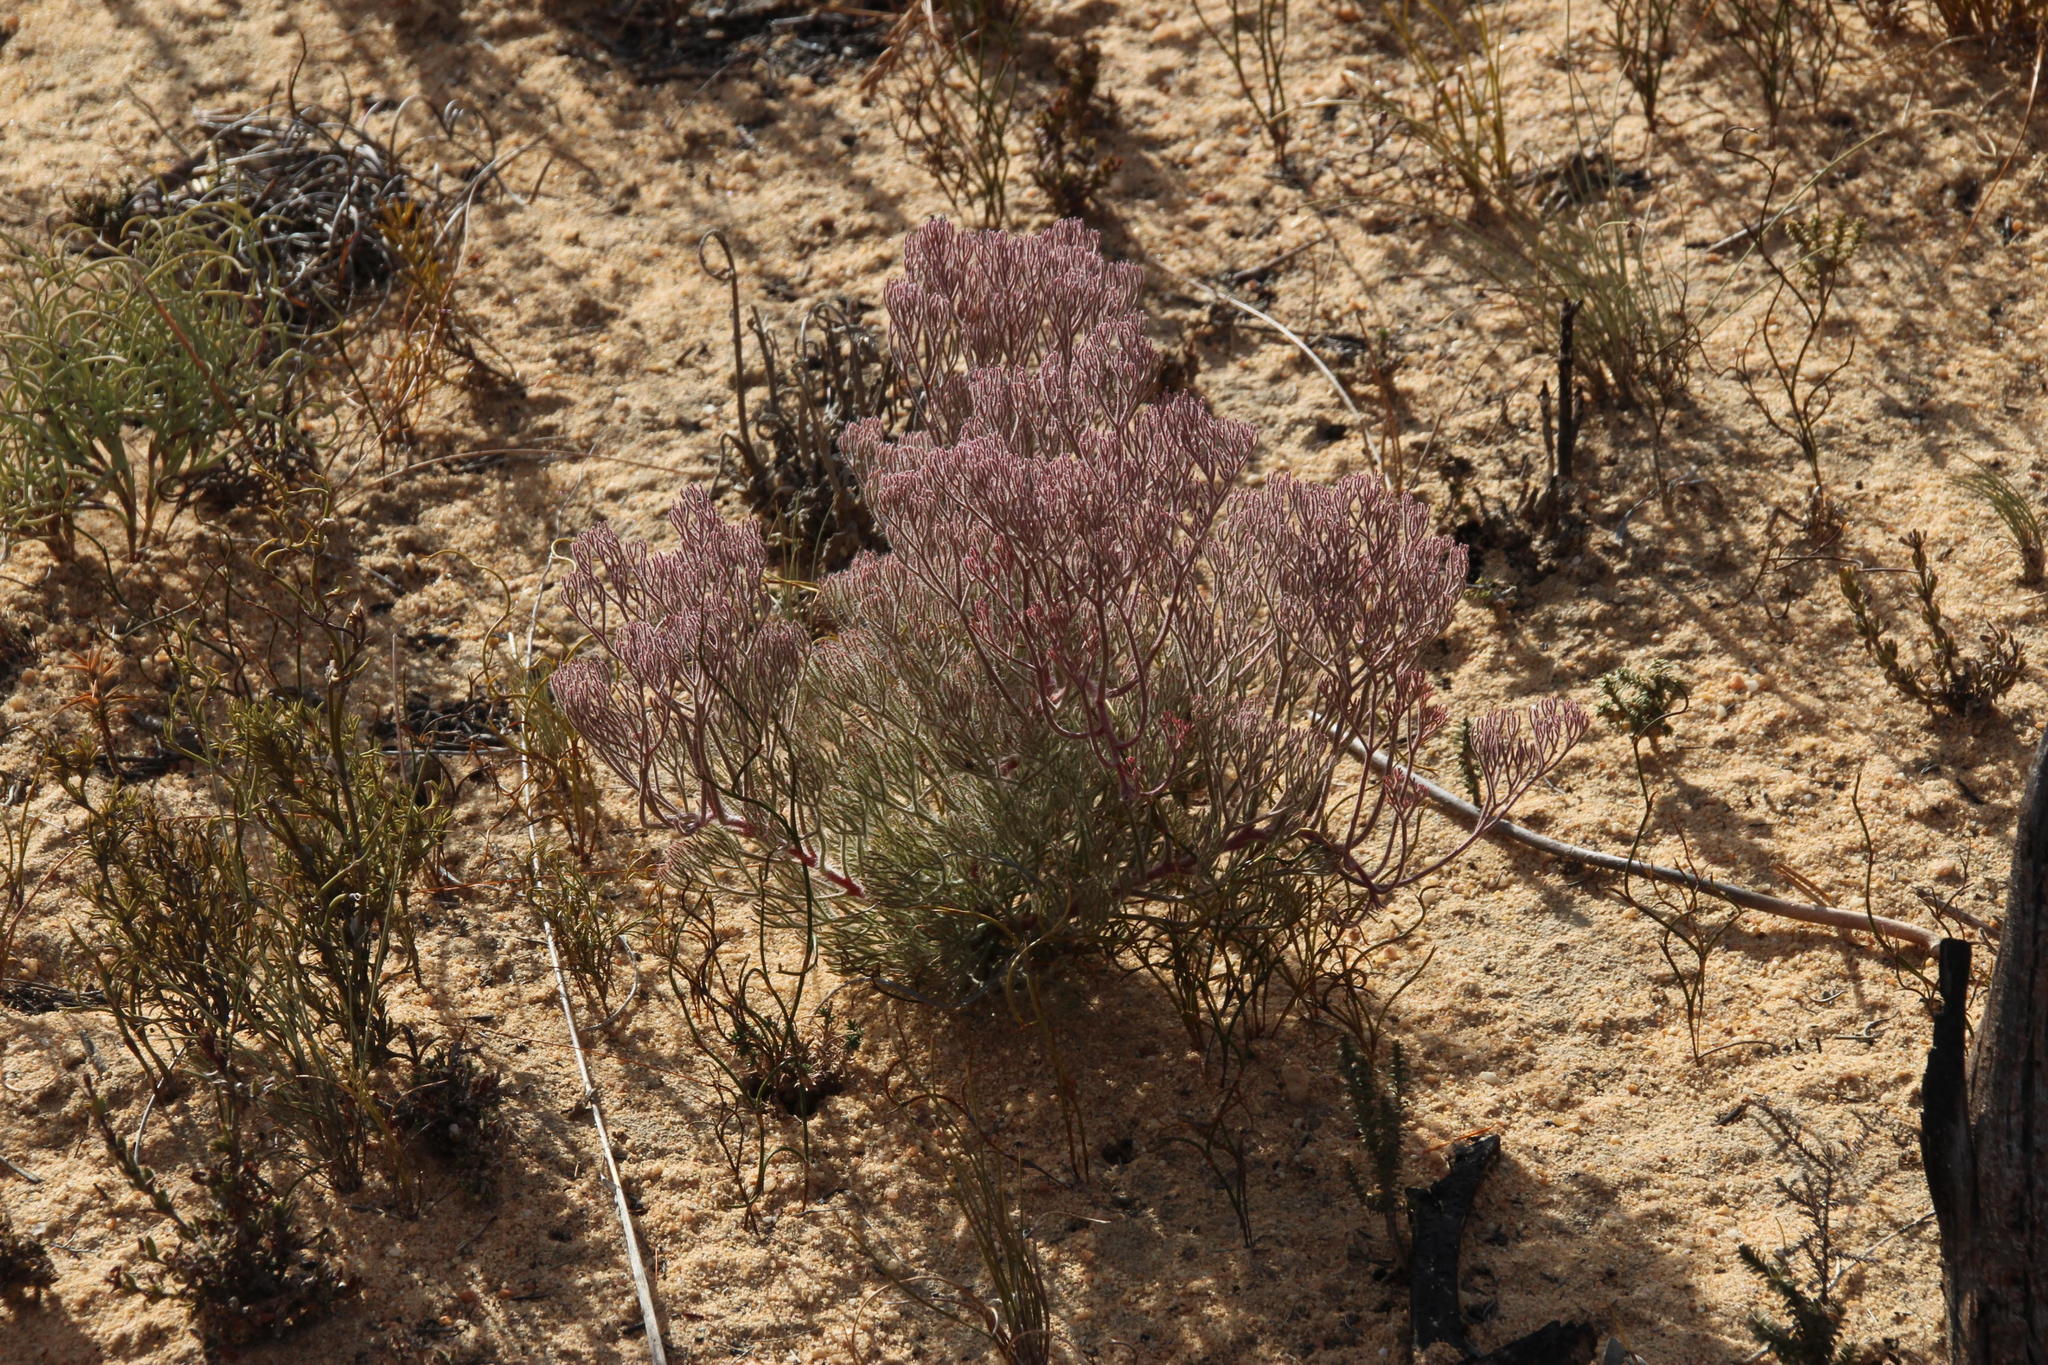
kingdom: Plantae
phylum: Tracheophyta
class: Magnoliopsida
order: Proteales
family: Proteaceae
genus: Serruria
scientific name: Serruria effusa
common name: Candelabra spiderhead
